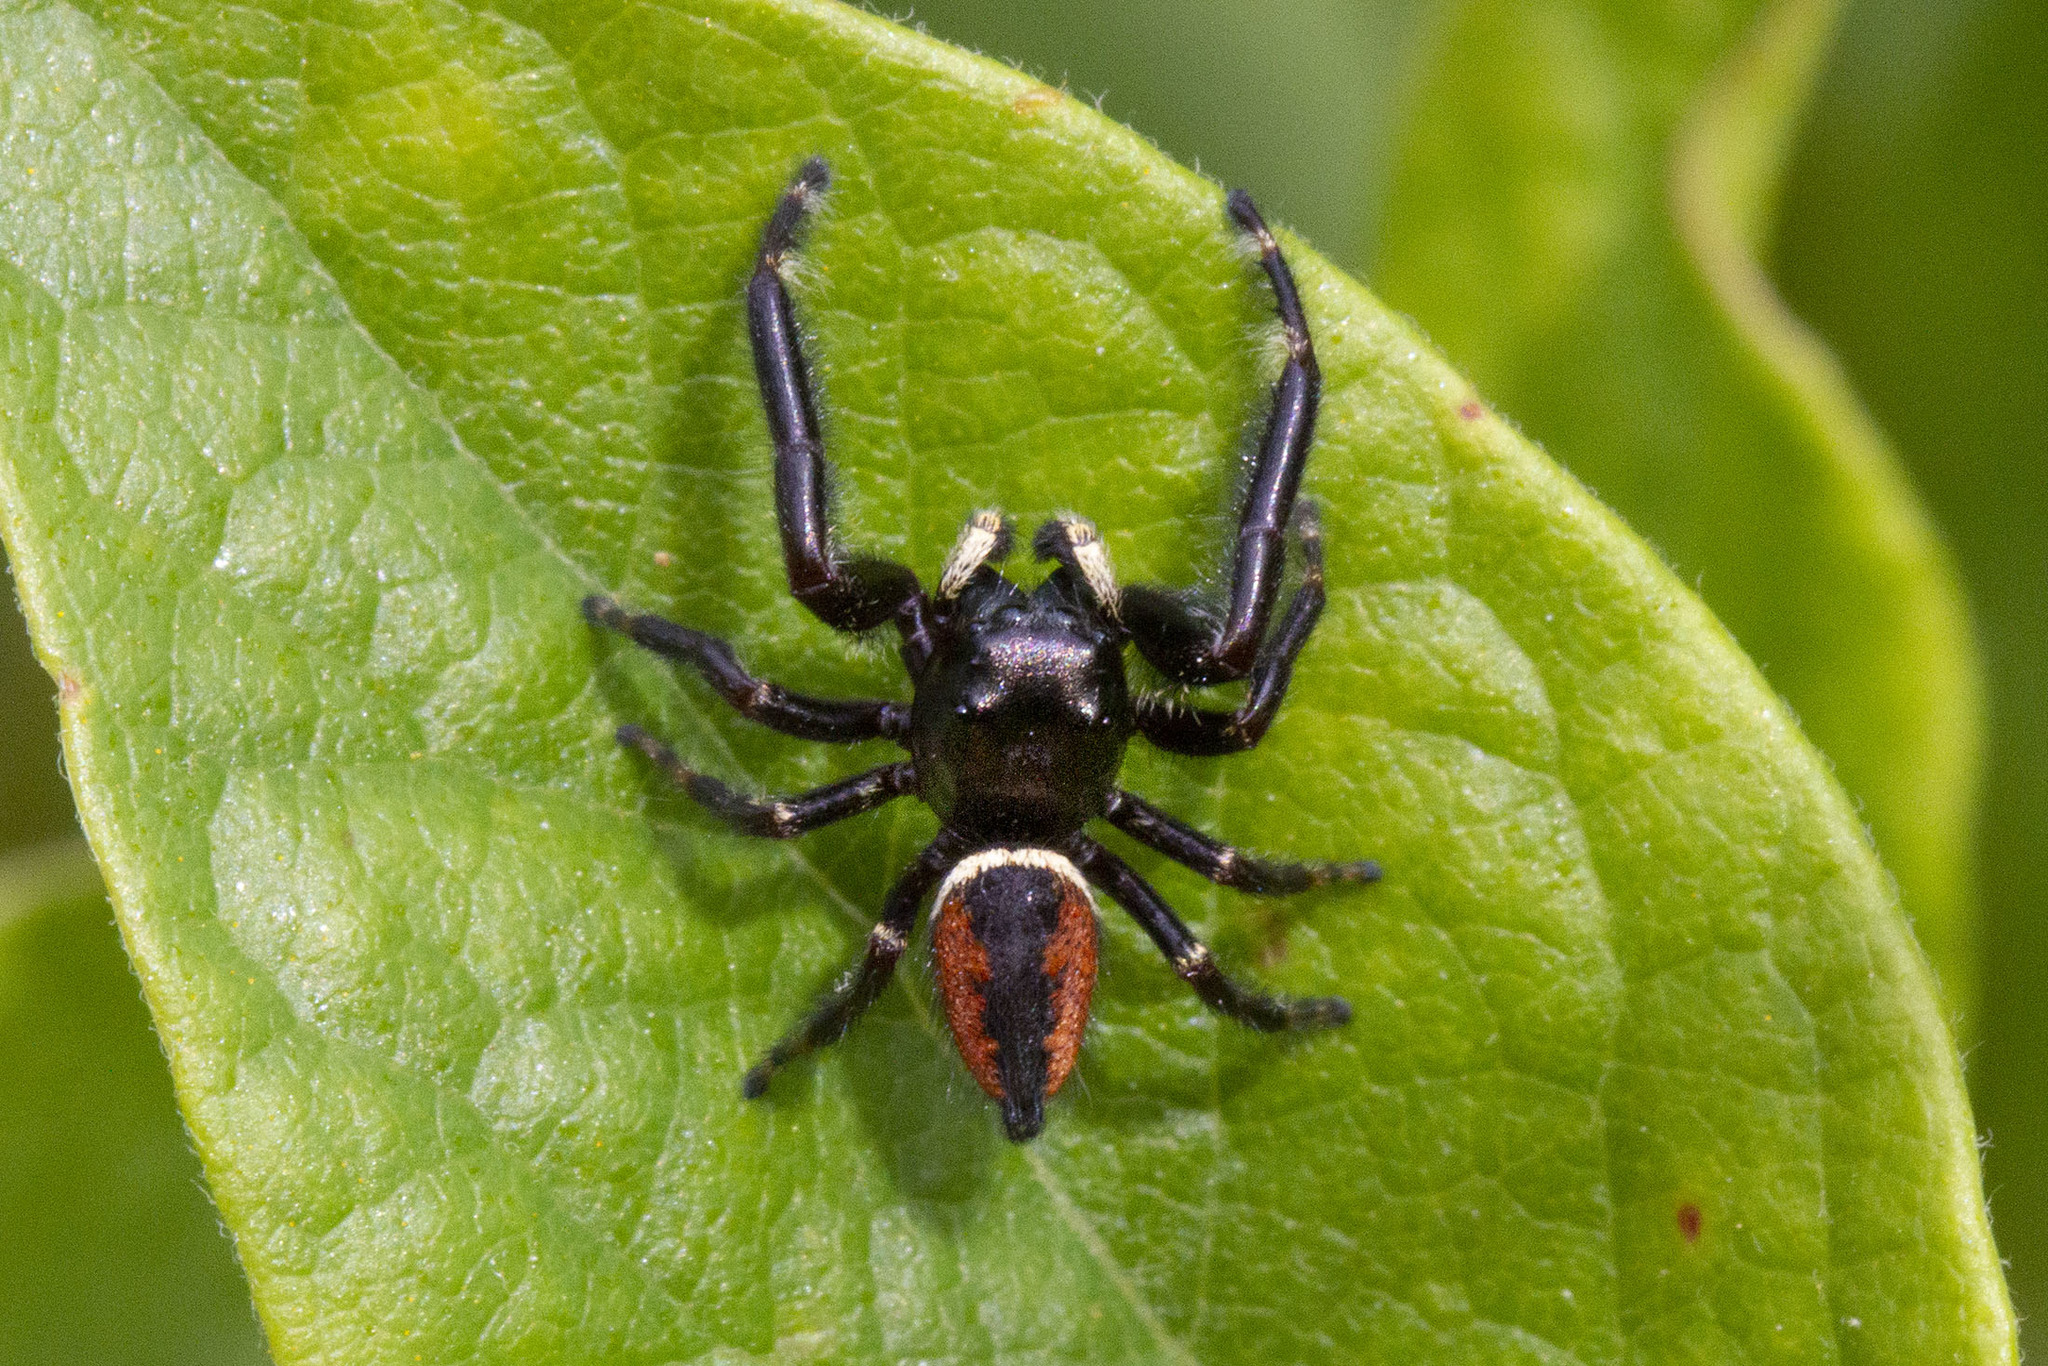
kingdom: Animalia
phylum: Arthropoda
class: Arachnida
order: Araneae
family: Salticidae
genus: Phidippus
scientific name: Phidippus clarus
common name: Brilliant jumping spider
